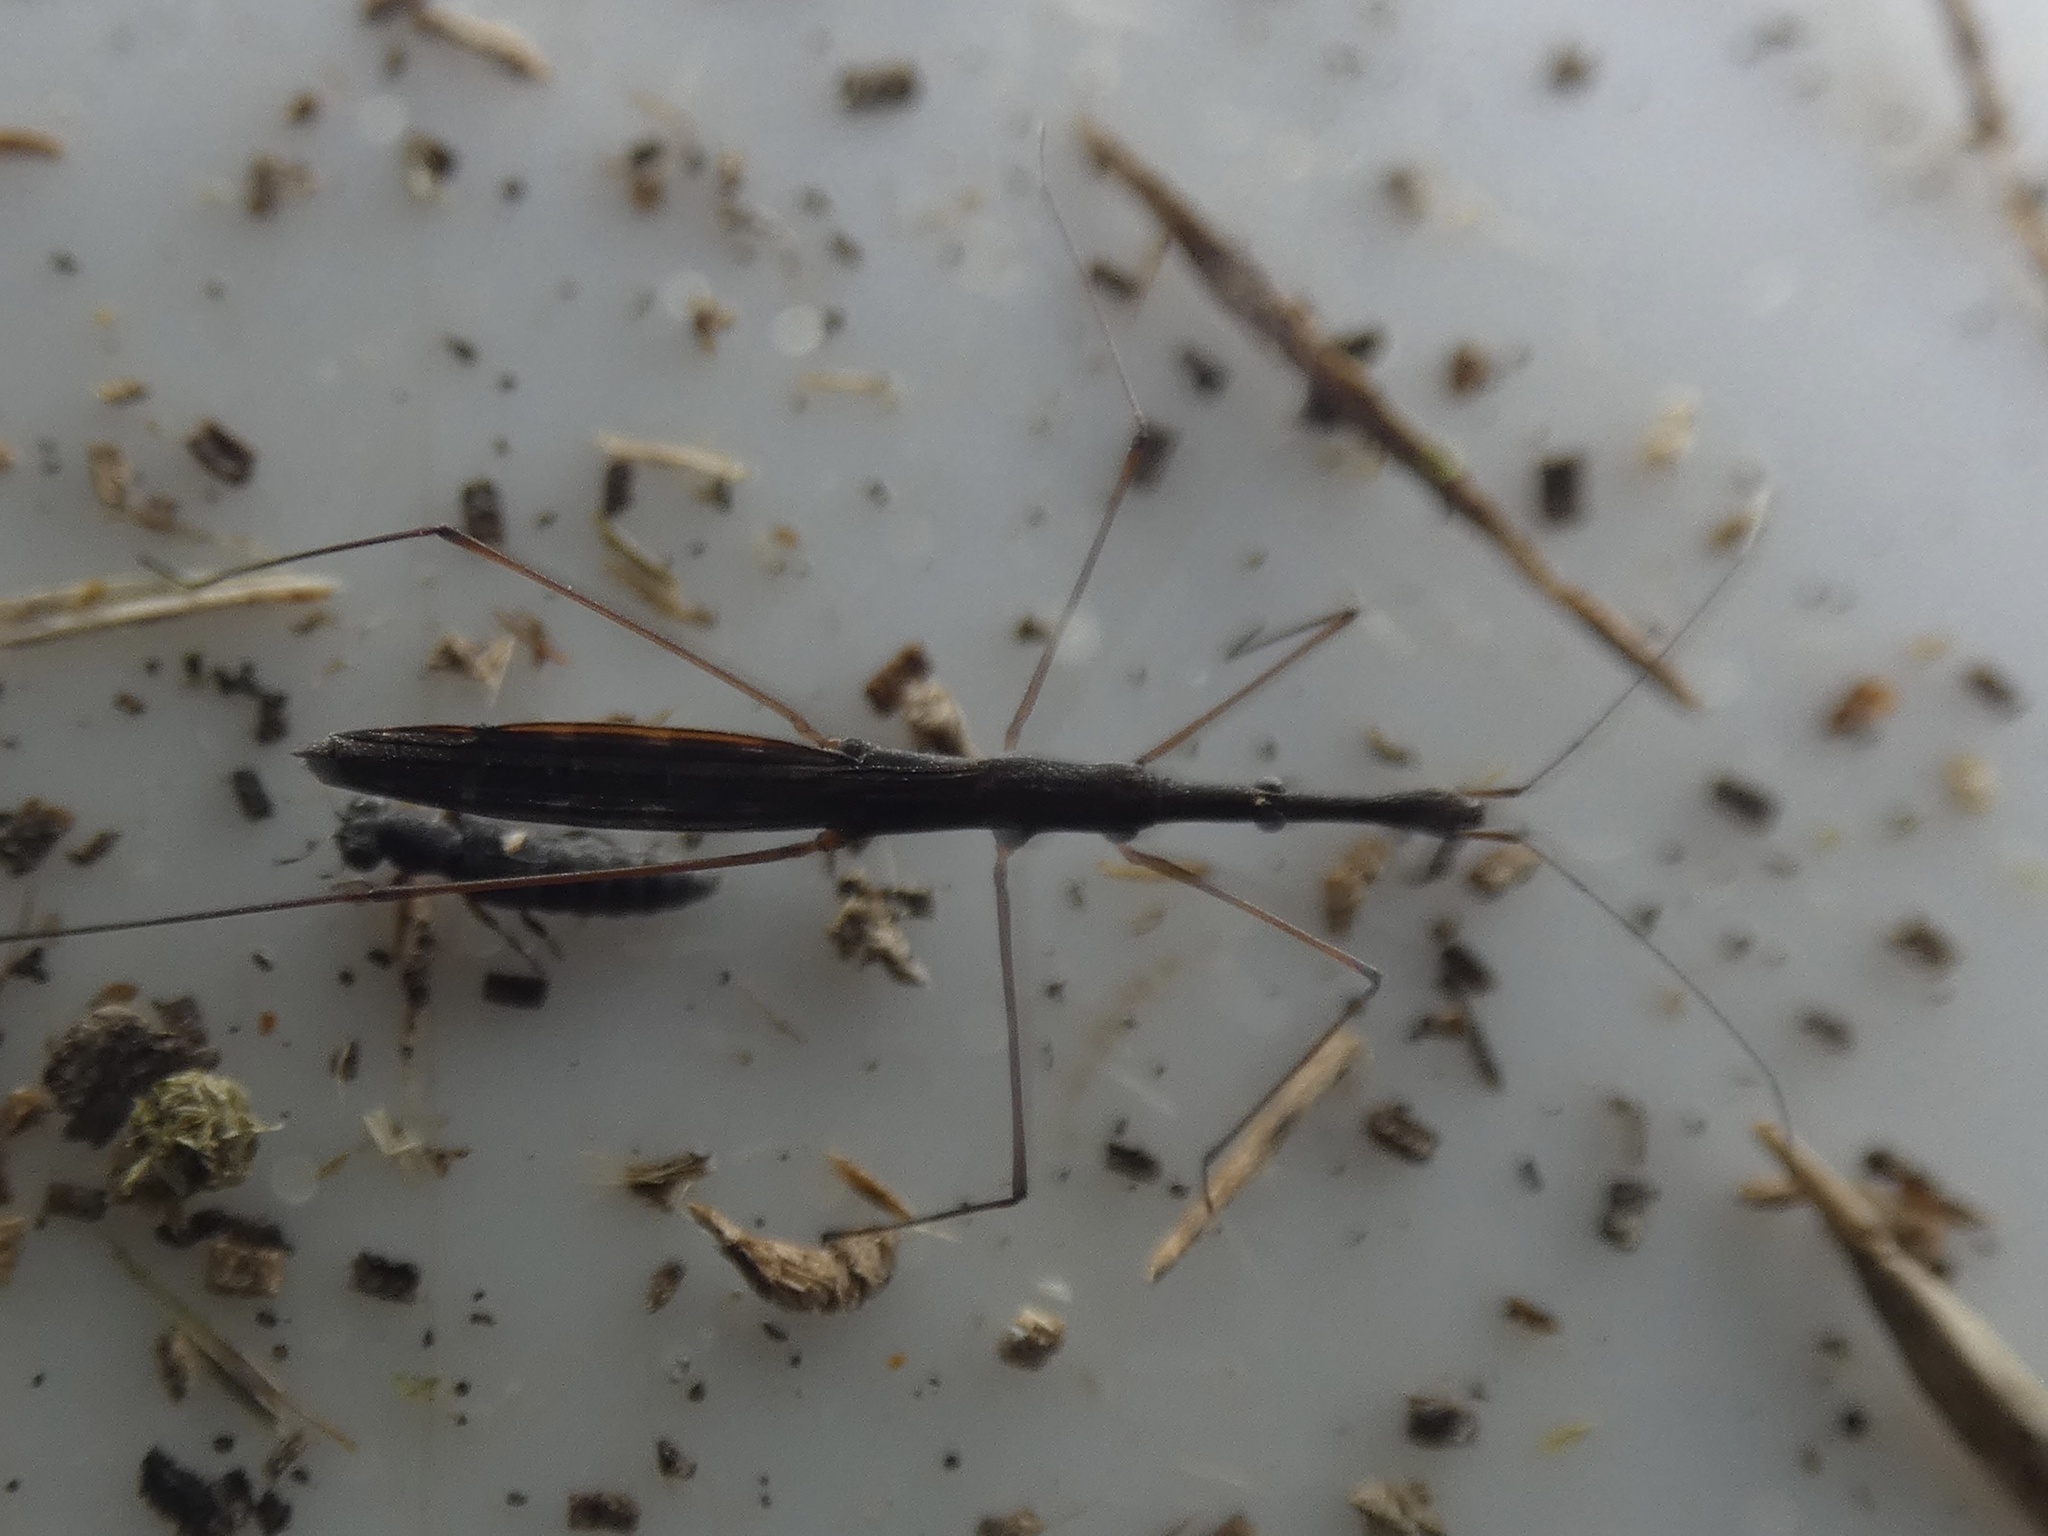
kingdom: Animalia
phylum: Arthropoda
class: Insecta
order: Hemiptera
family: Hydrometridae
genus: Hydrometra
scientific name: Hydrometra stagnorum
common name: Water measurer
